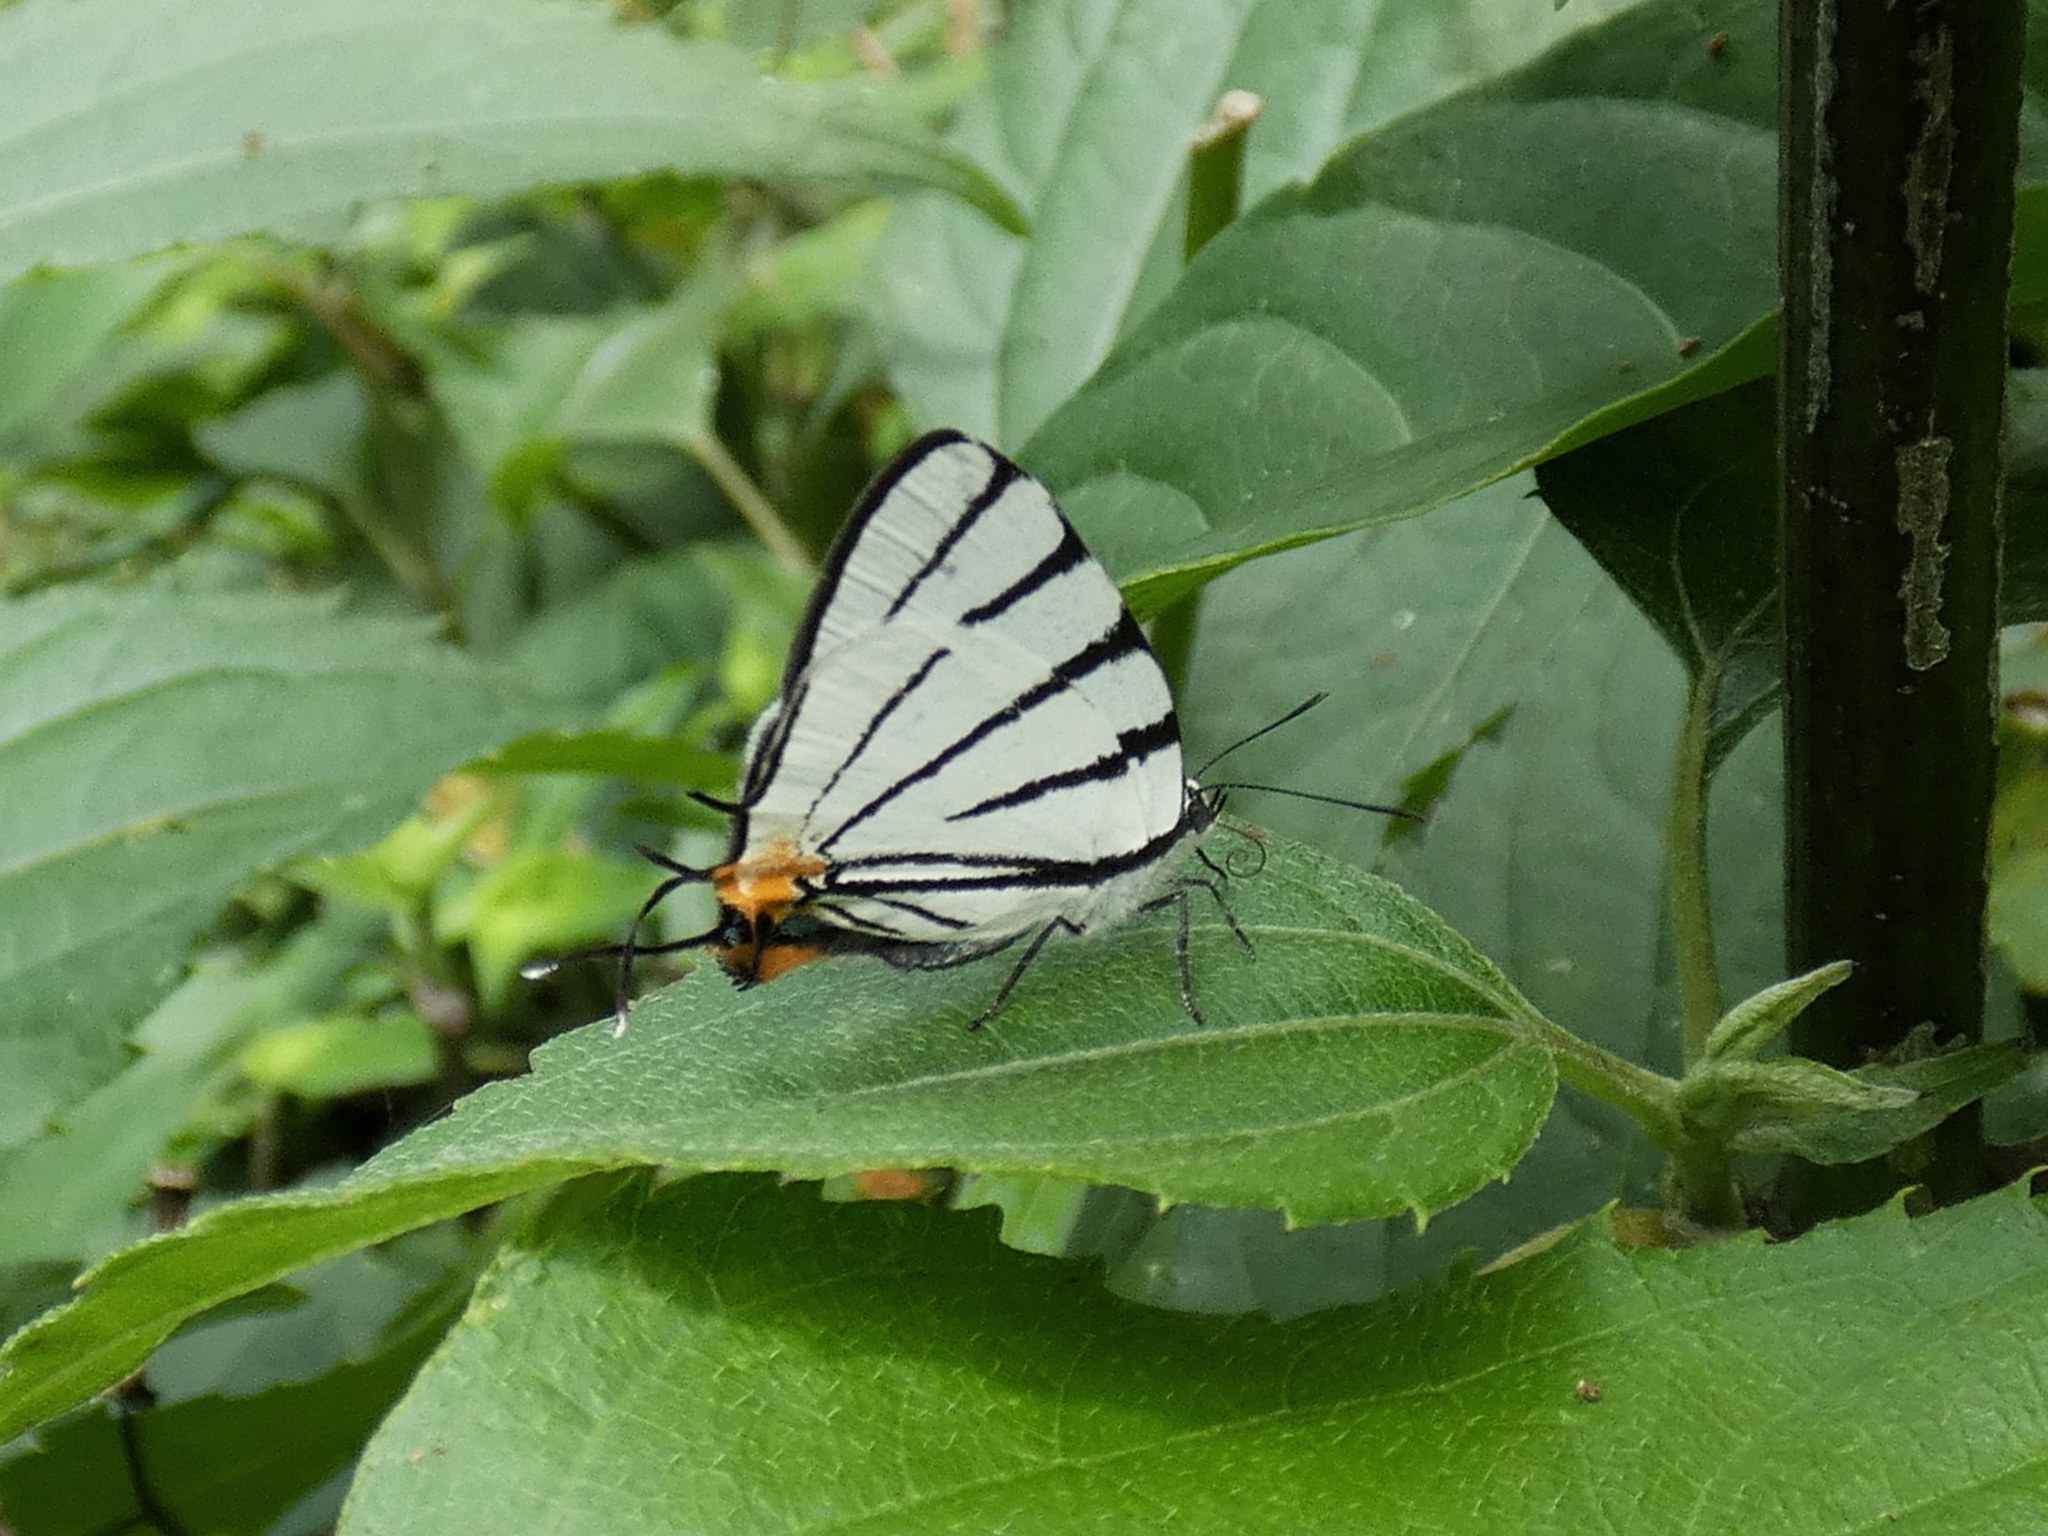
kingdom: Animalia
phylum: Arthropoda
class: Insecta
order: Lepidoptera
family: Lycaenidae
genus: Arawacus
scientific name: Arawacus leucogyna
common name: Black-tipped stripe-streak
